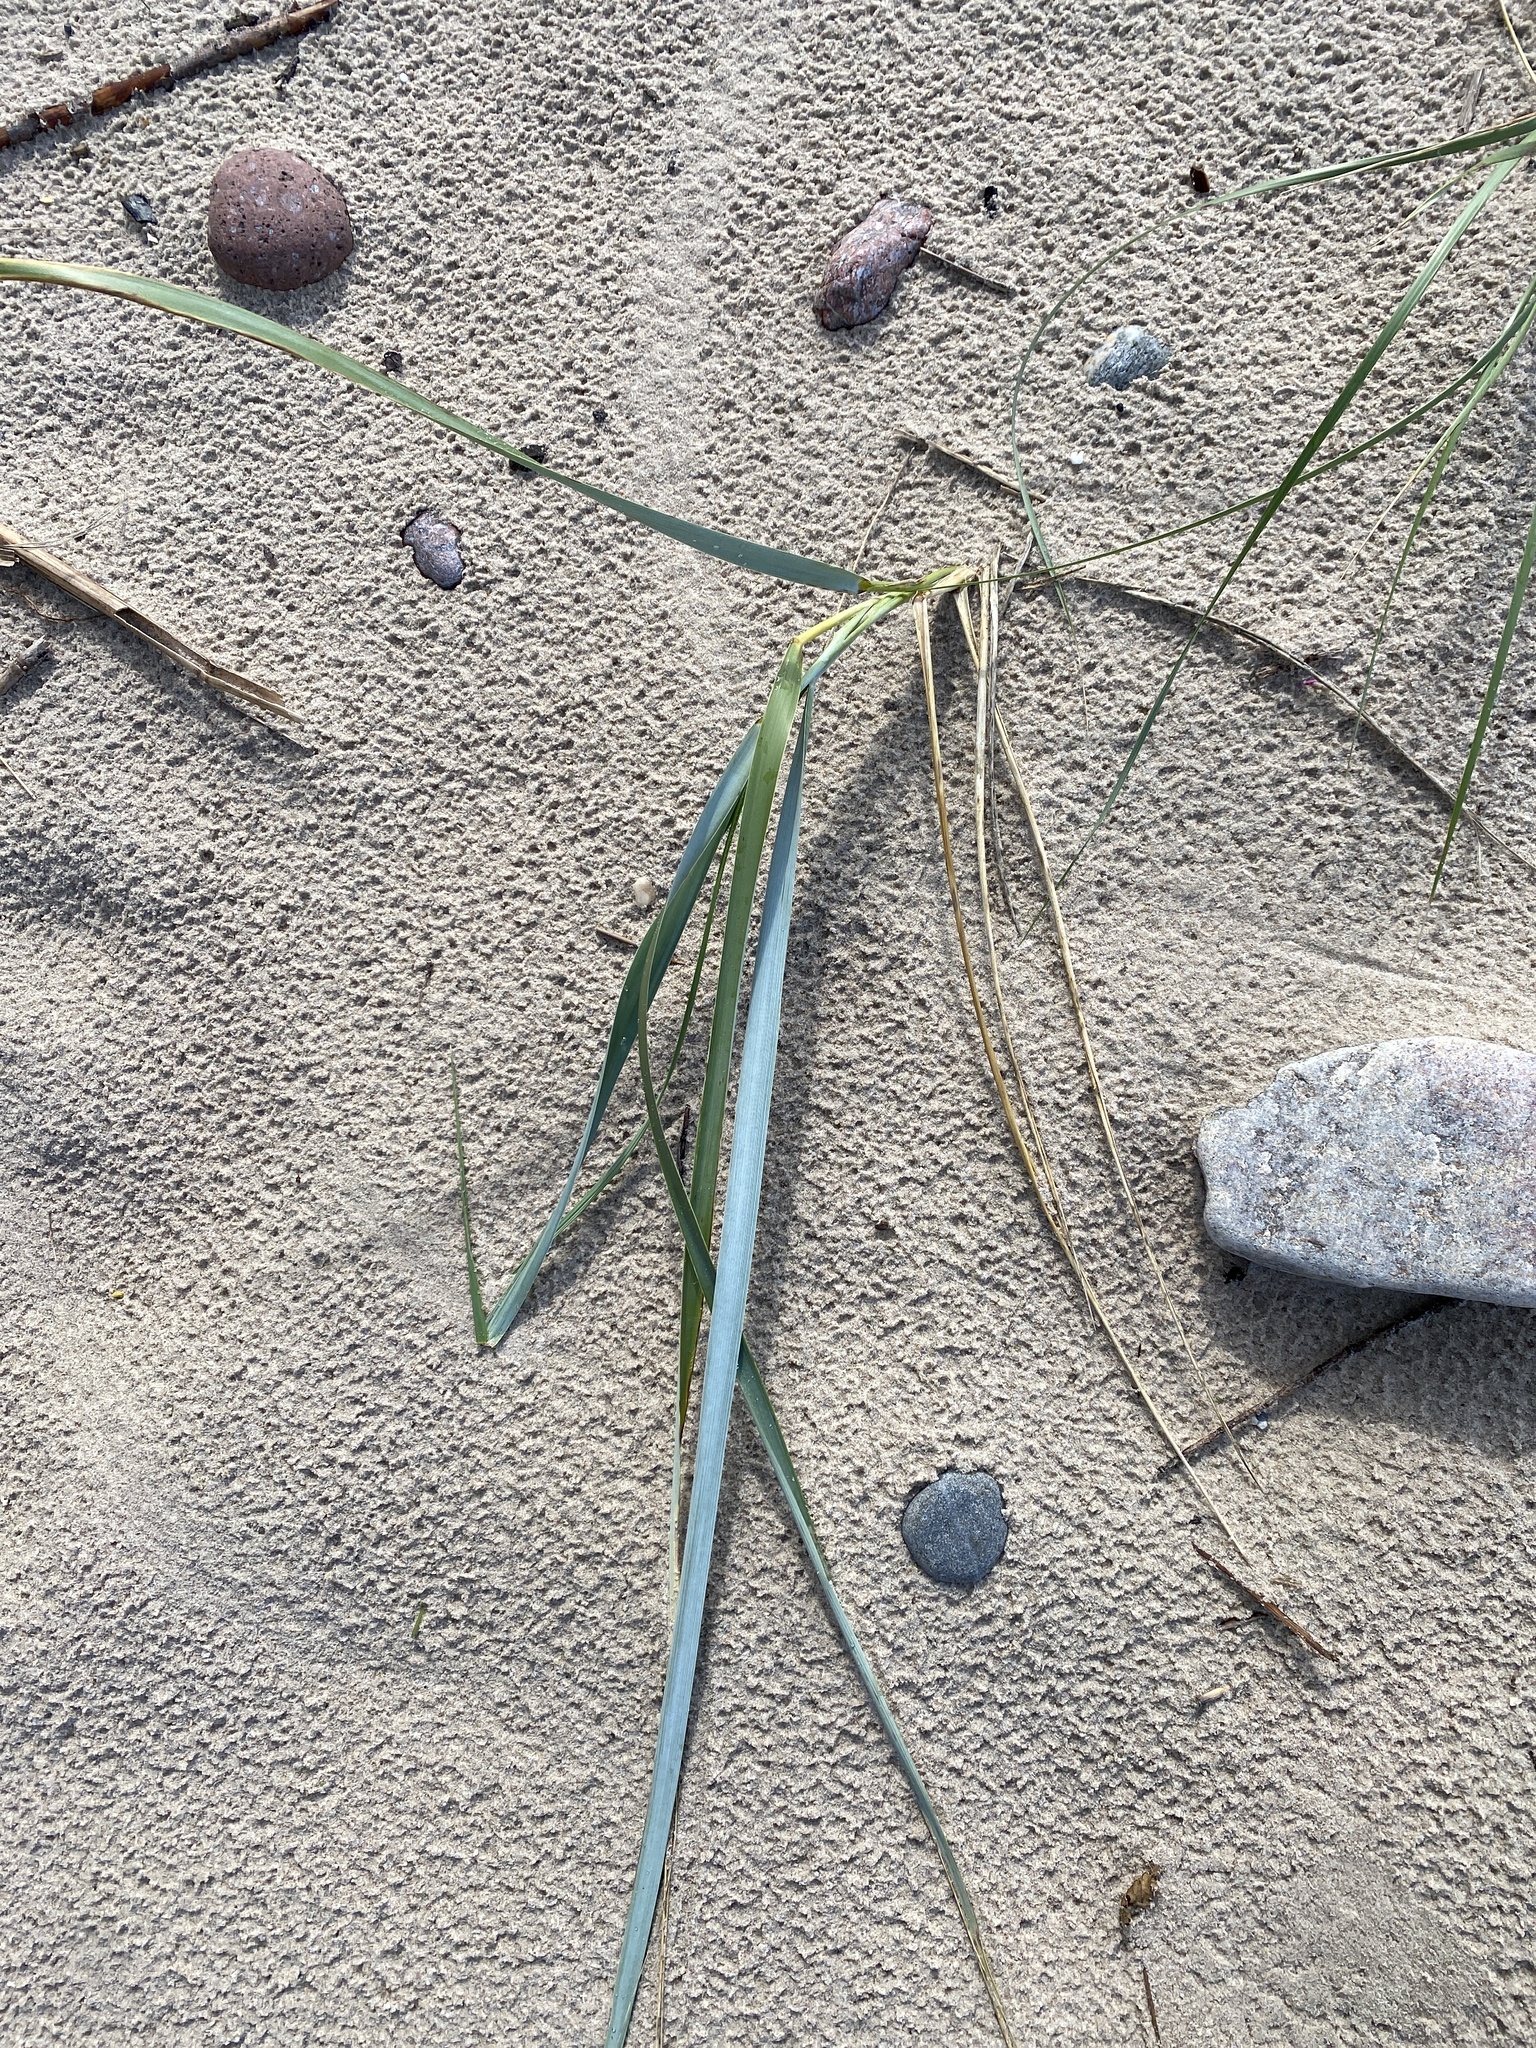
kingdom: Plantae
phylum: Tracheophyta
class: Liliopsida
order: Poales
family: Poaceae
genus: Leymus
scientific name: Leymus arenarius
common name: Lyme-grass
